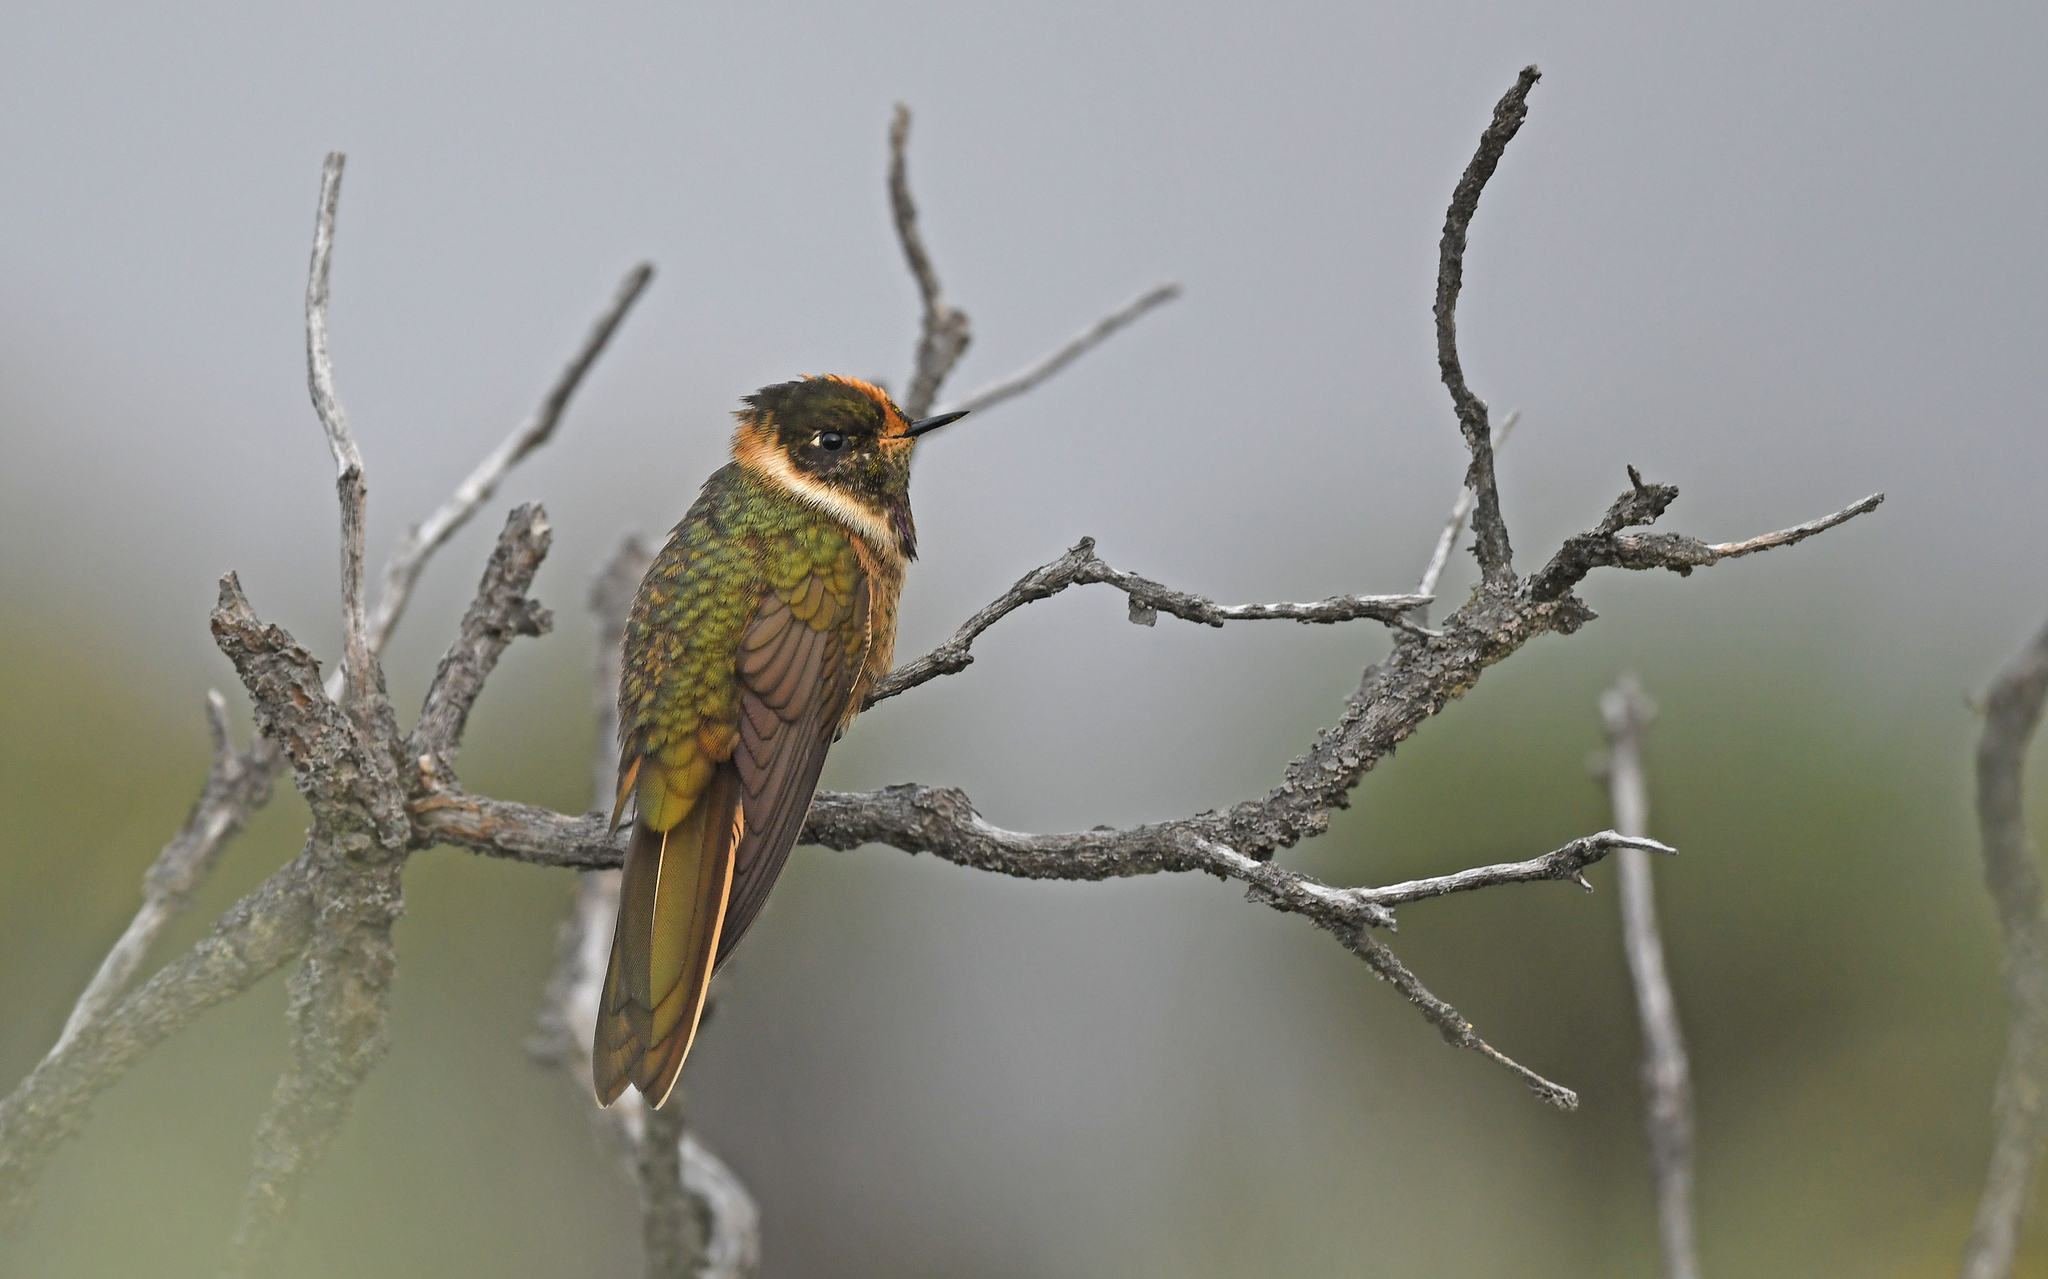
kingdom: Animalia
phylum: Chordata
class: Aves
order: Apodiformes
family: Trochilidae
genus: Oxypogon
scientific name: Oxypogon stuebelii
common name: Buffy helmetcrest
